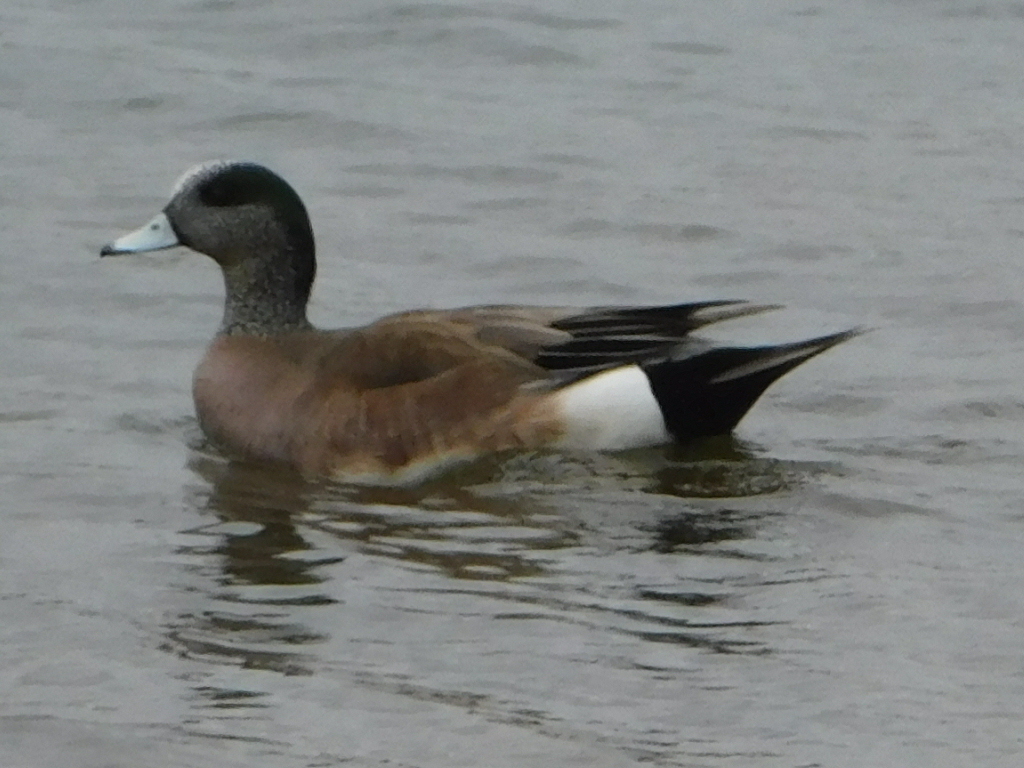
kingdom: Animalia
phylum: Chordata
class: Aves
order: Anseriformes
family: Anatidae
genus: Mareca
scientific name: Mareca americana
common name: American wigeon
